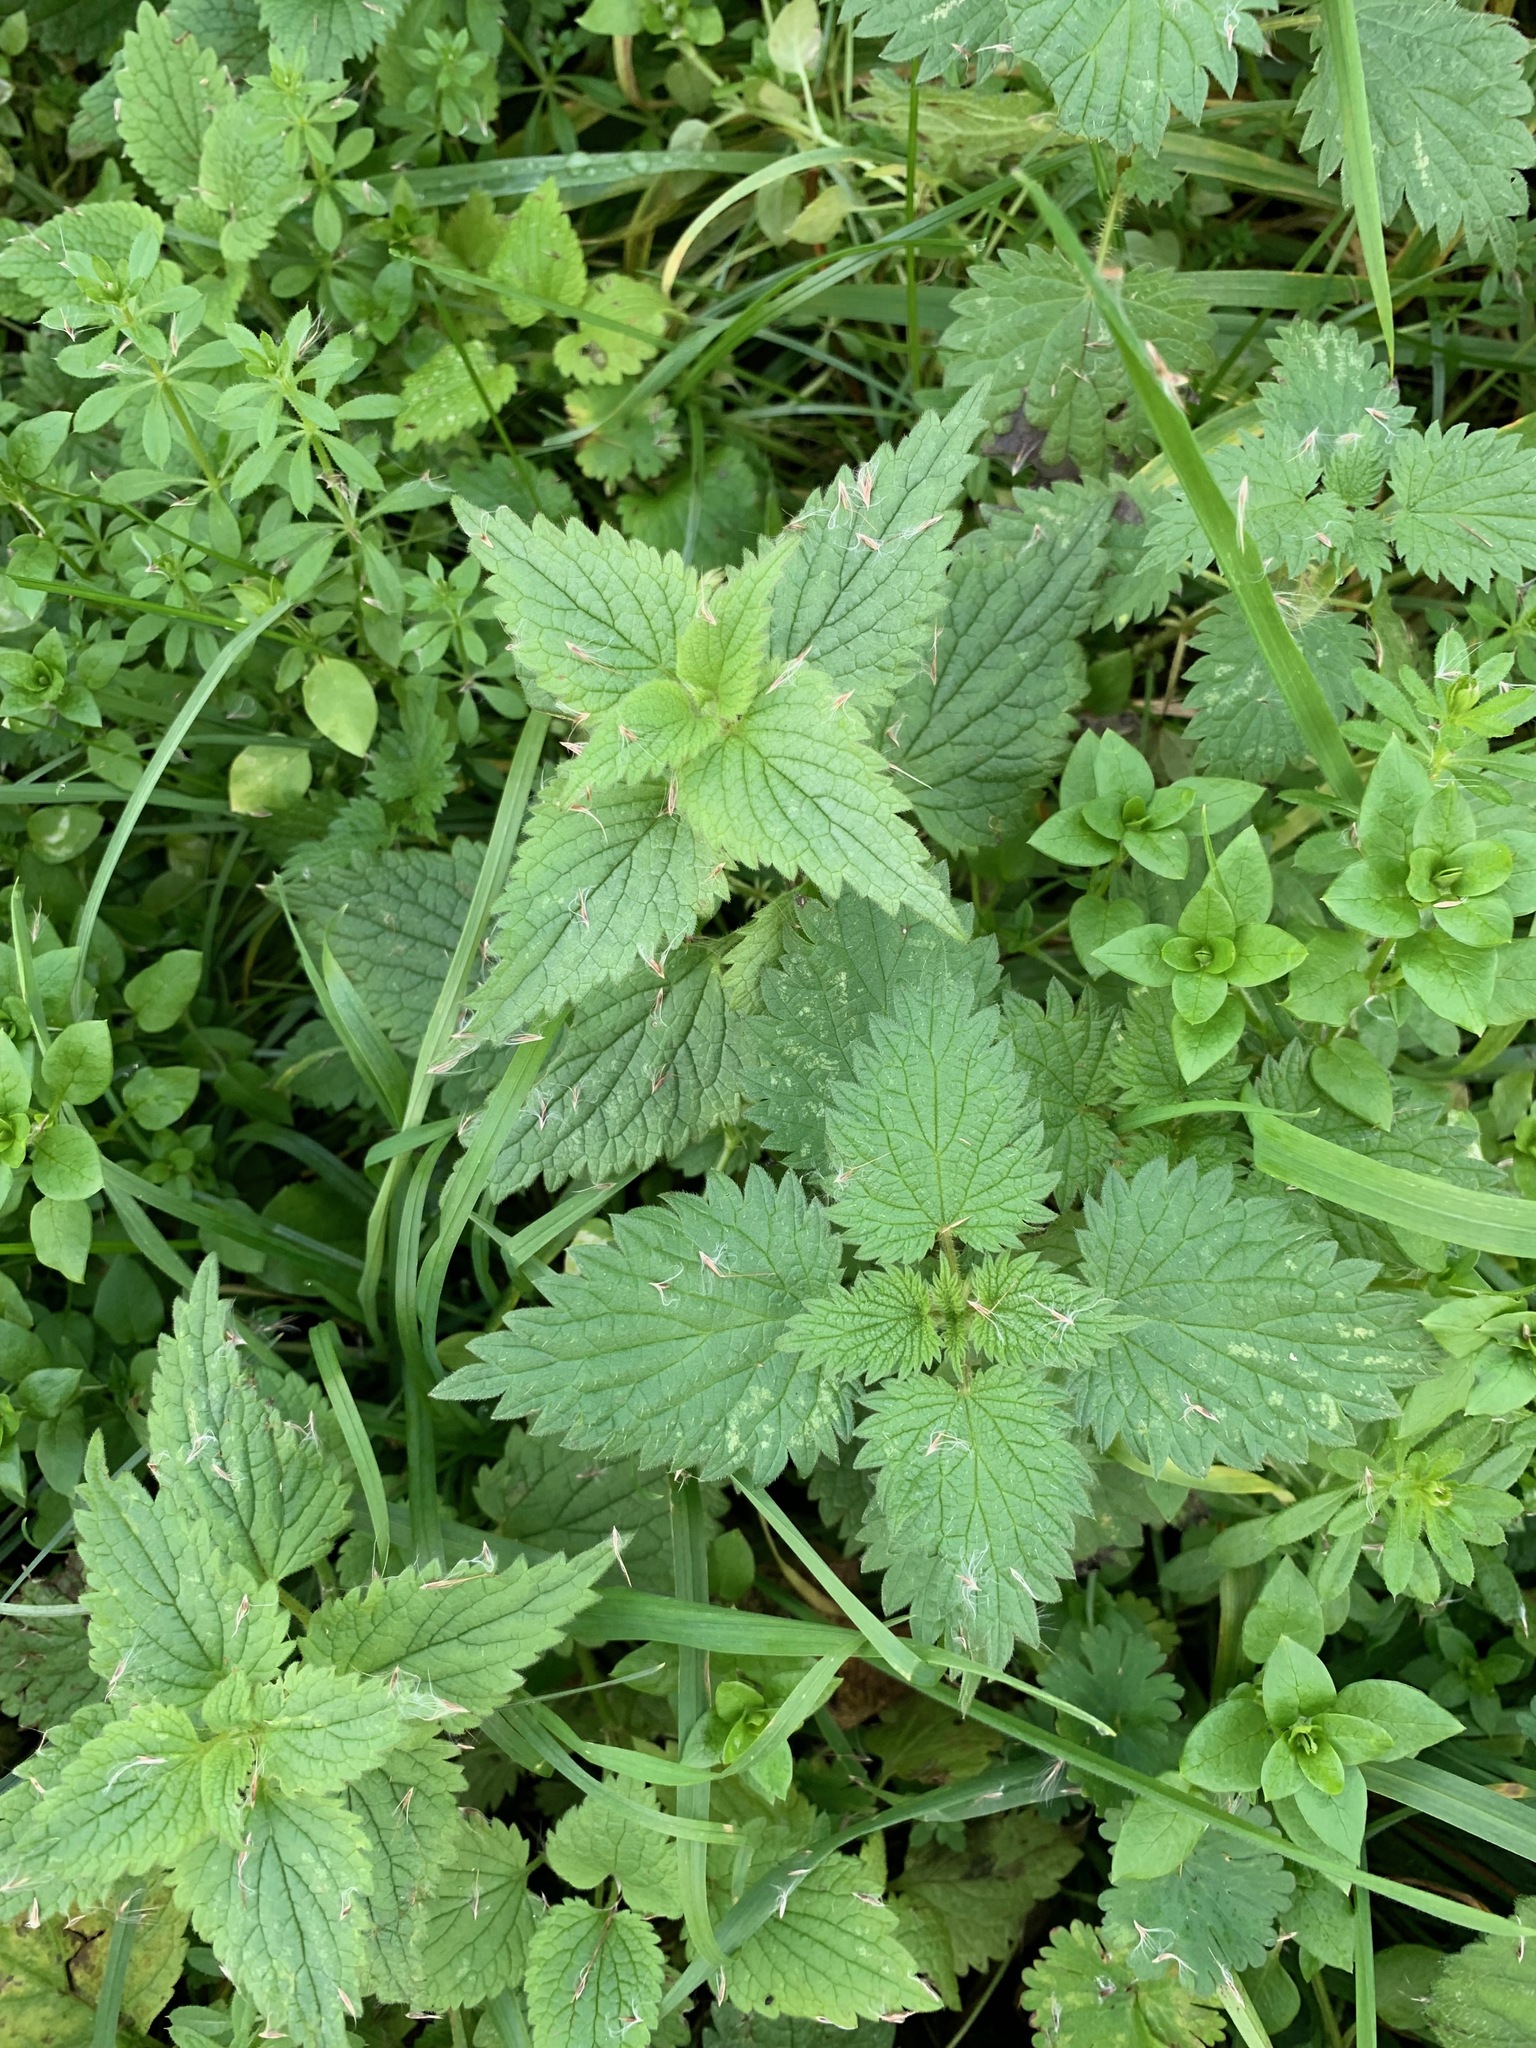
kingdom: Plantae
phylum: Tracheophyta
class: Magnoliopsida
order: Rosales
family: Urticaceae
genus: Urtica
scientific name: Urtica dioica
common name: Common nettle
